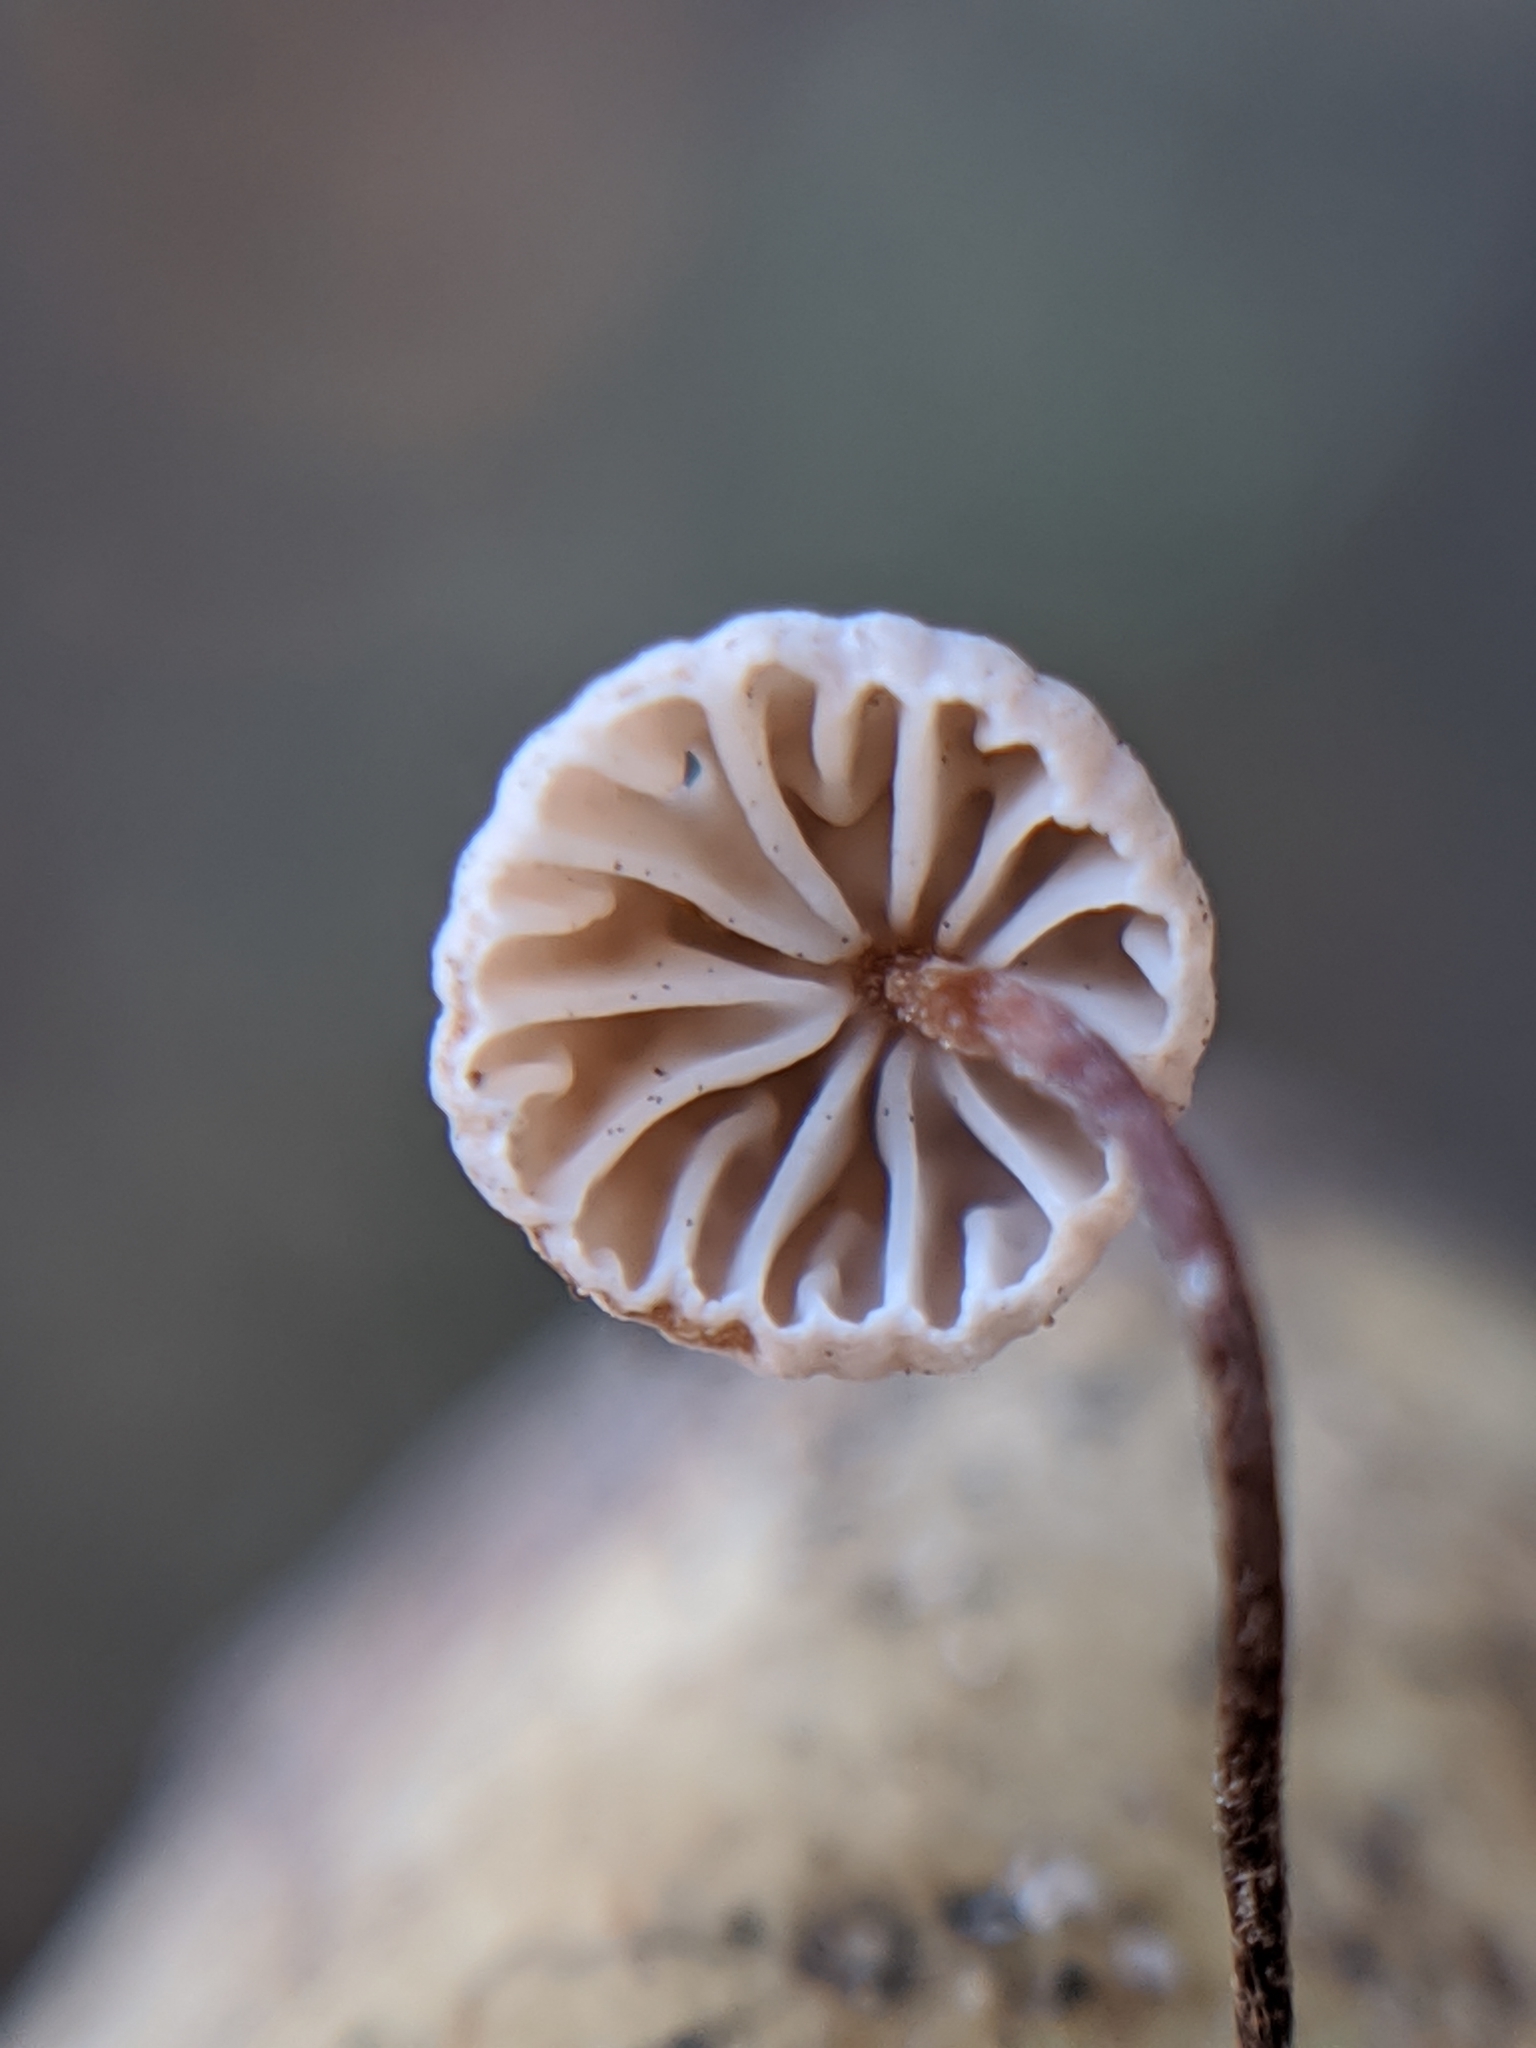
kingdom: Fungi
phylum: Basidiomycota
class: Agaricomycetes
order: Agaricales
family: Omphalotaceae
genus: Collybiopsis
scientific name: Collybiopsis quercophila
